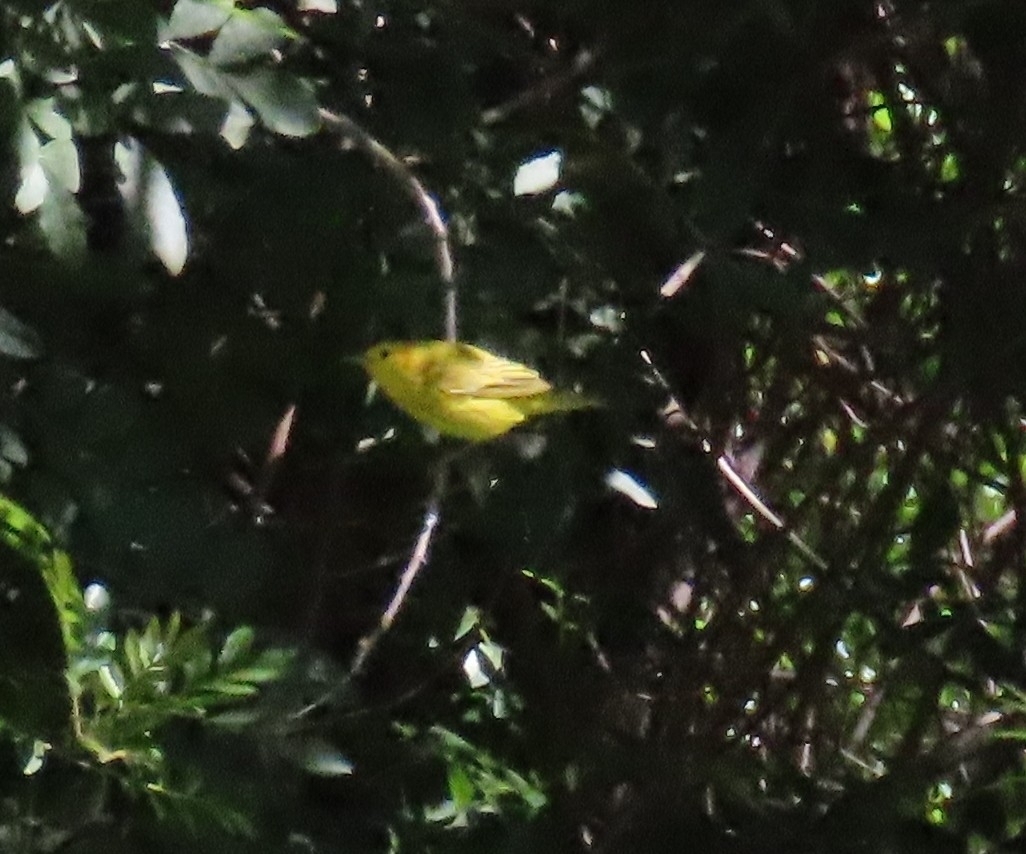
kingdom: Animalia
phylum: Chordata
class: Aves
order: Passeriformes
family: Parulidae
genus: Setophaga
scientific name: Setophaga petechia
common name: Yellow warbler
